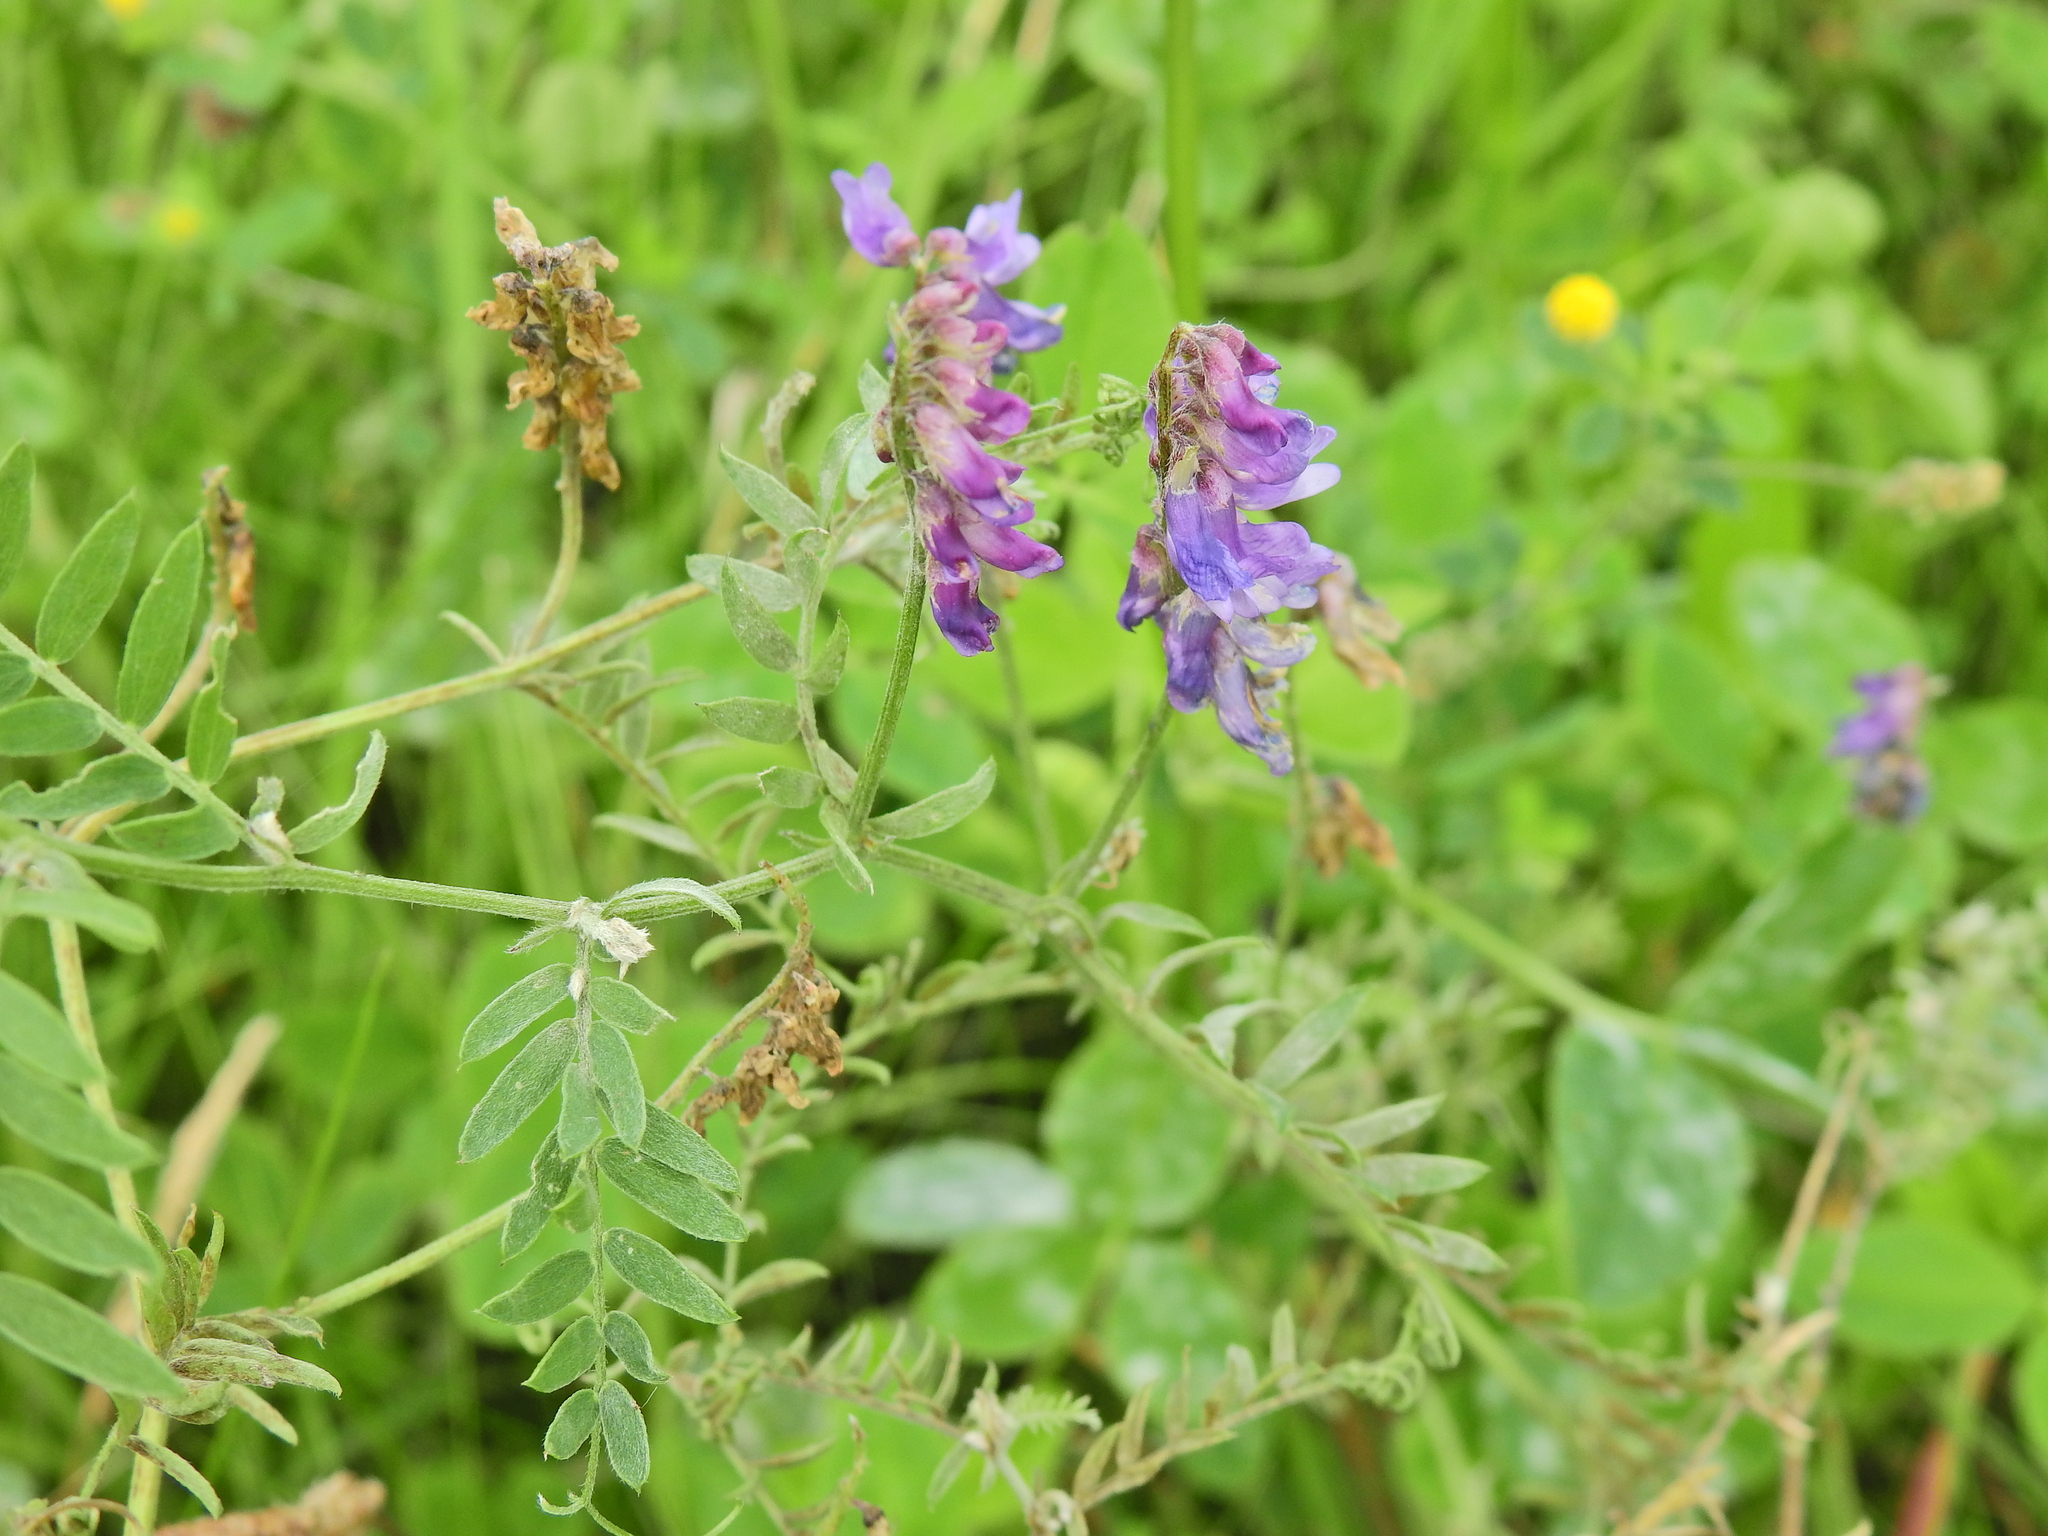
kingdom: Plantae
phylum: Tracheophyta
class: Magnoliopsida
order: Fabales
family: Fabaceae
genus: Vicia
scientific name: Vicia cracca
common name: Bird vetch
